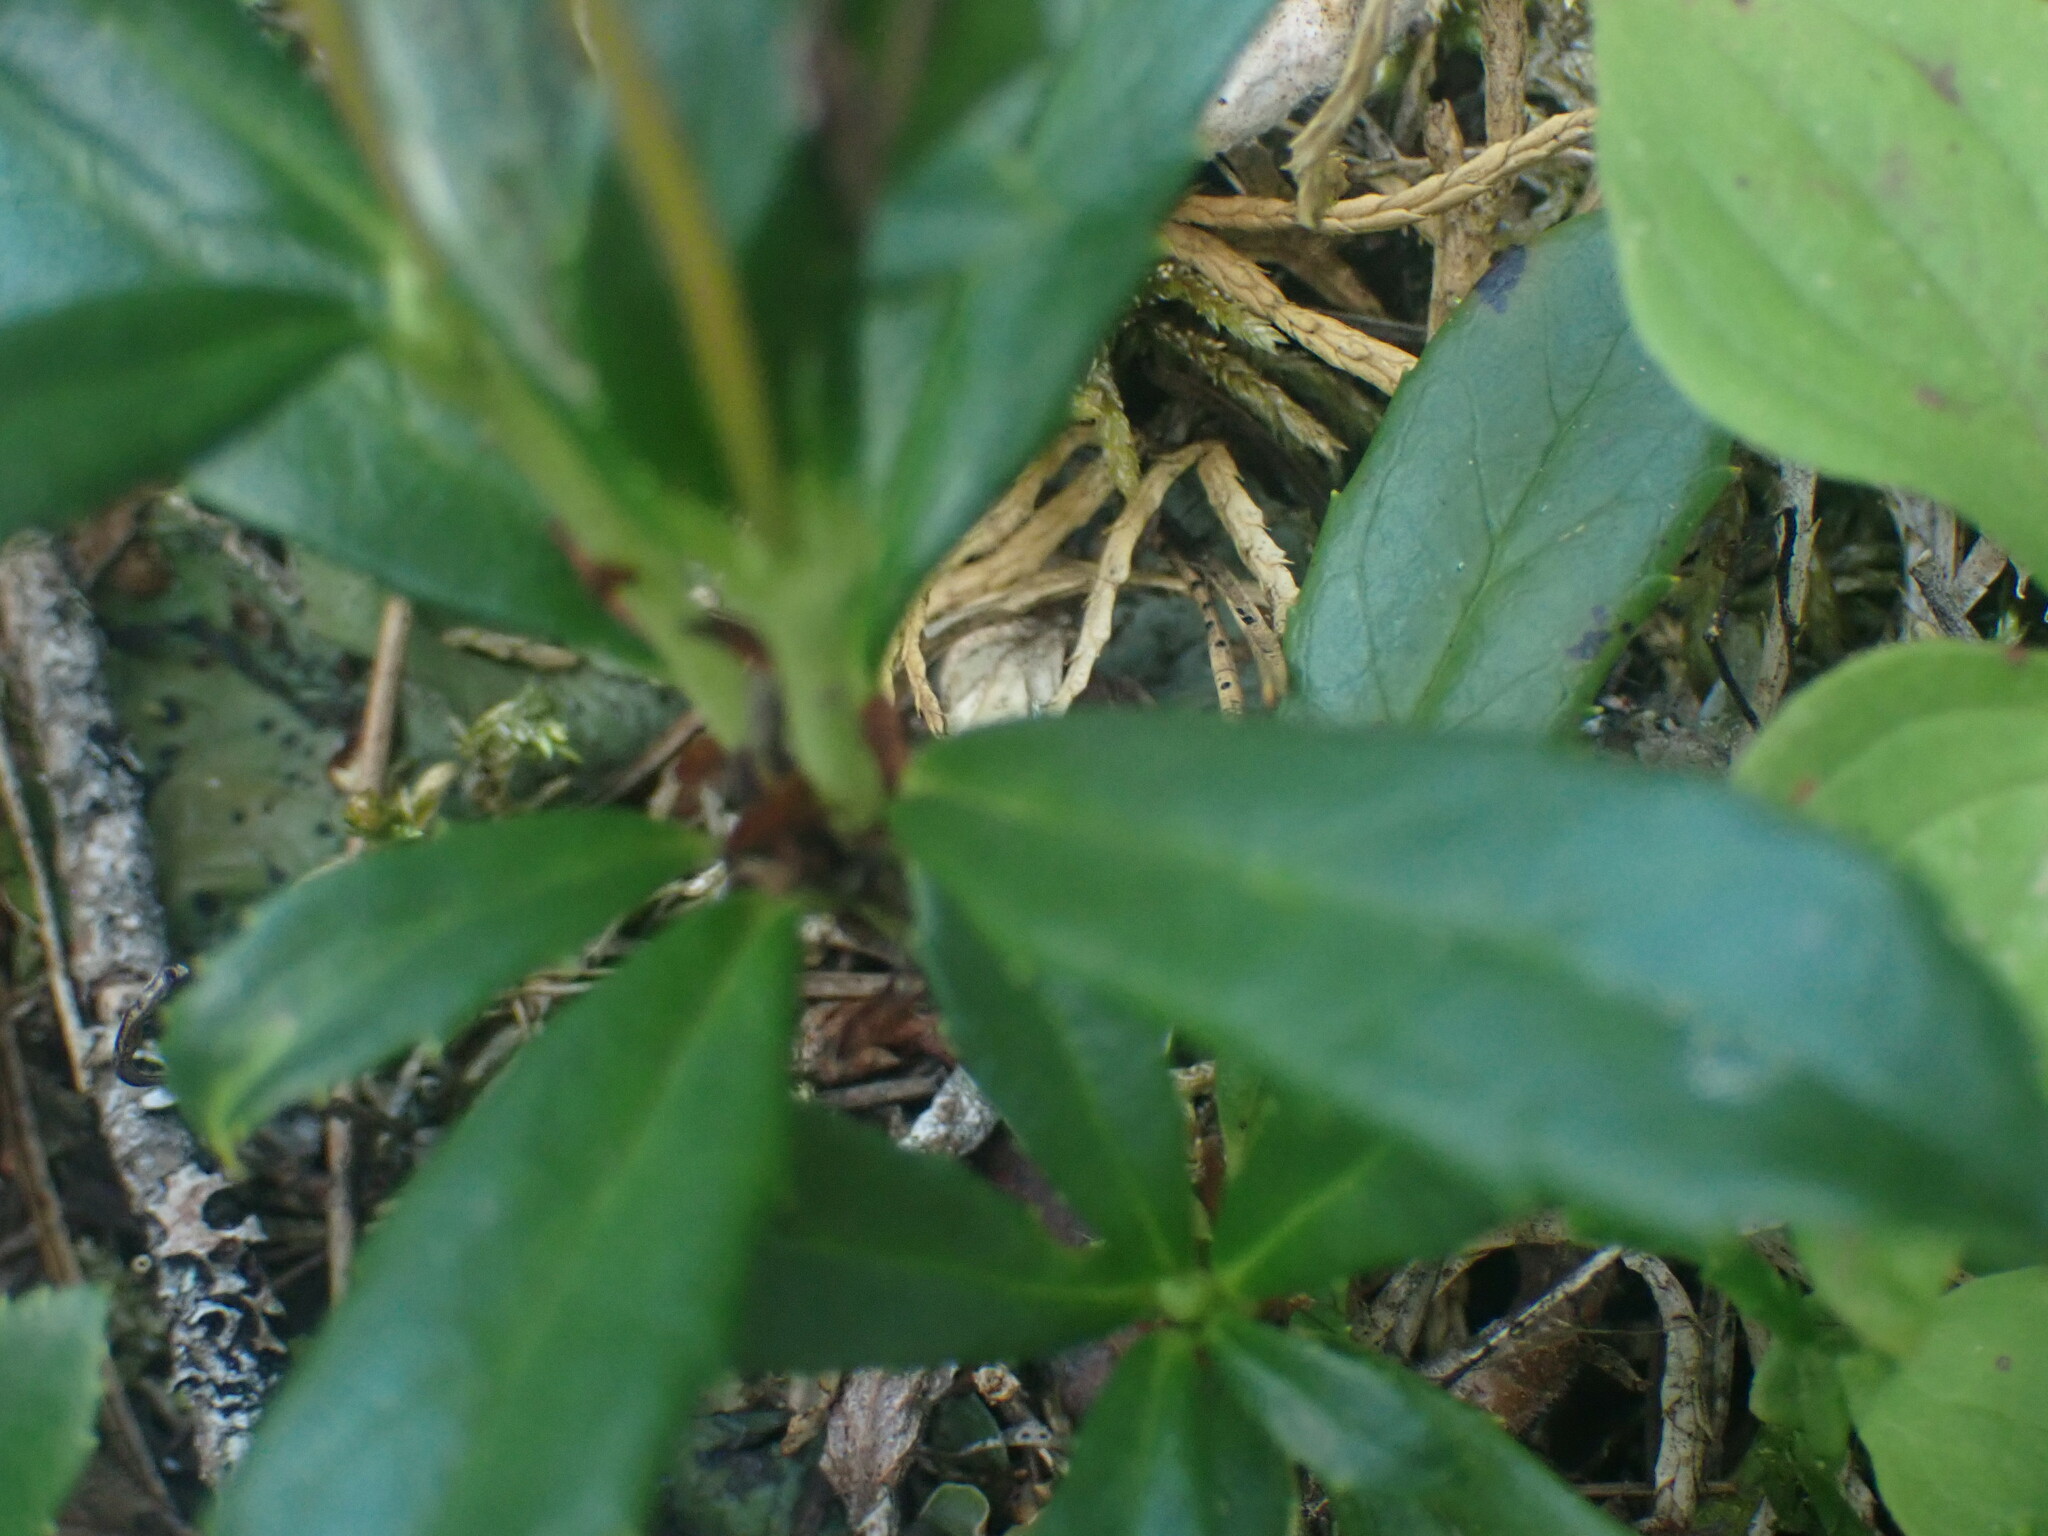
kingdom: Plantae
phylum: Tracheophyta
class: Magnoliopsida
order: Ericales
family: Ericaceae
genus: Chimaphila
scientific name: Chimaphila umbellata
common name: Pipsissewa
